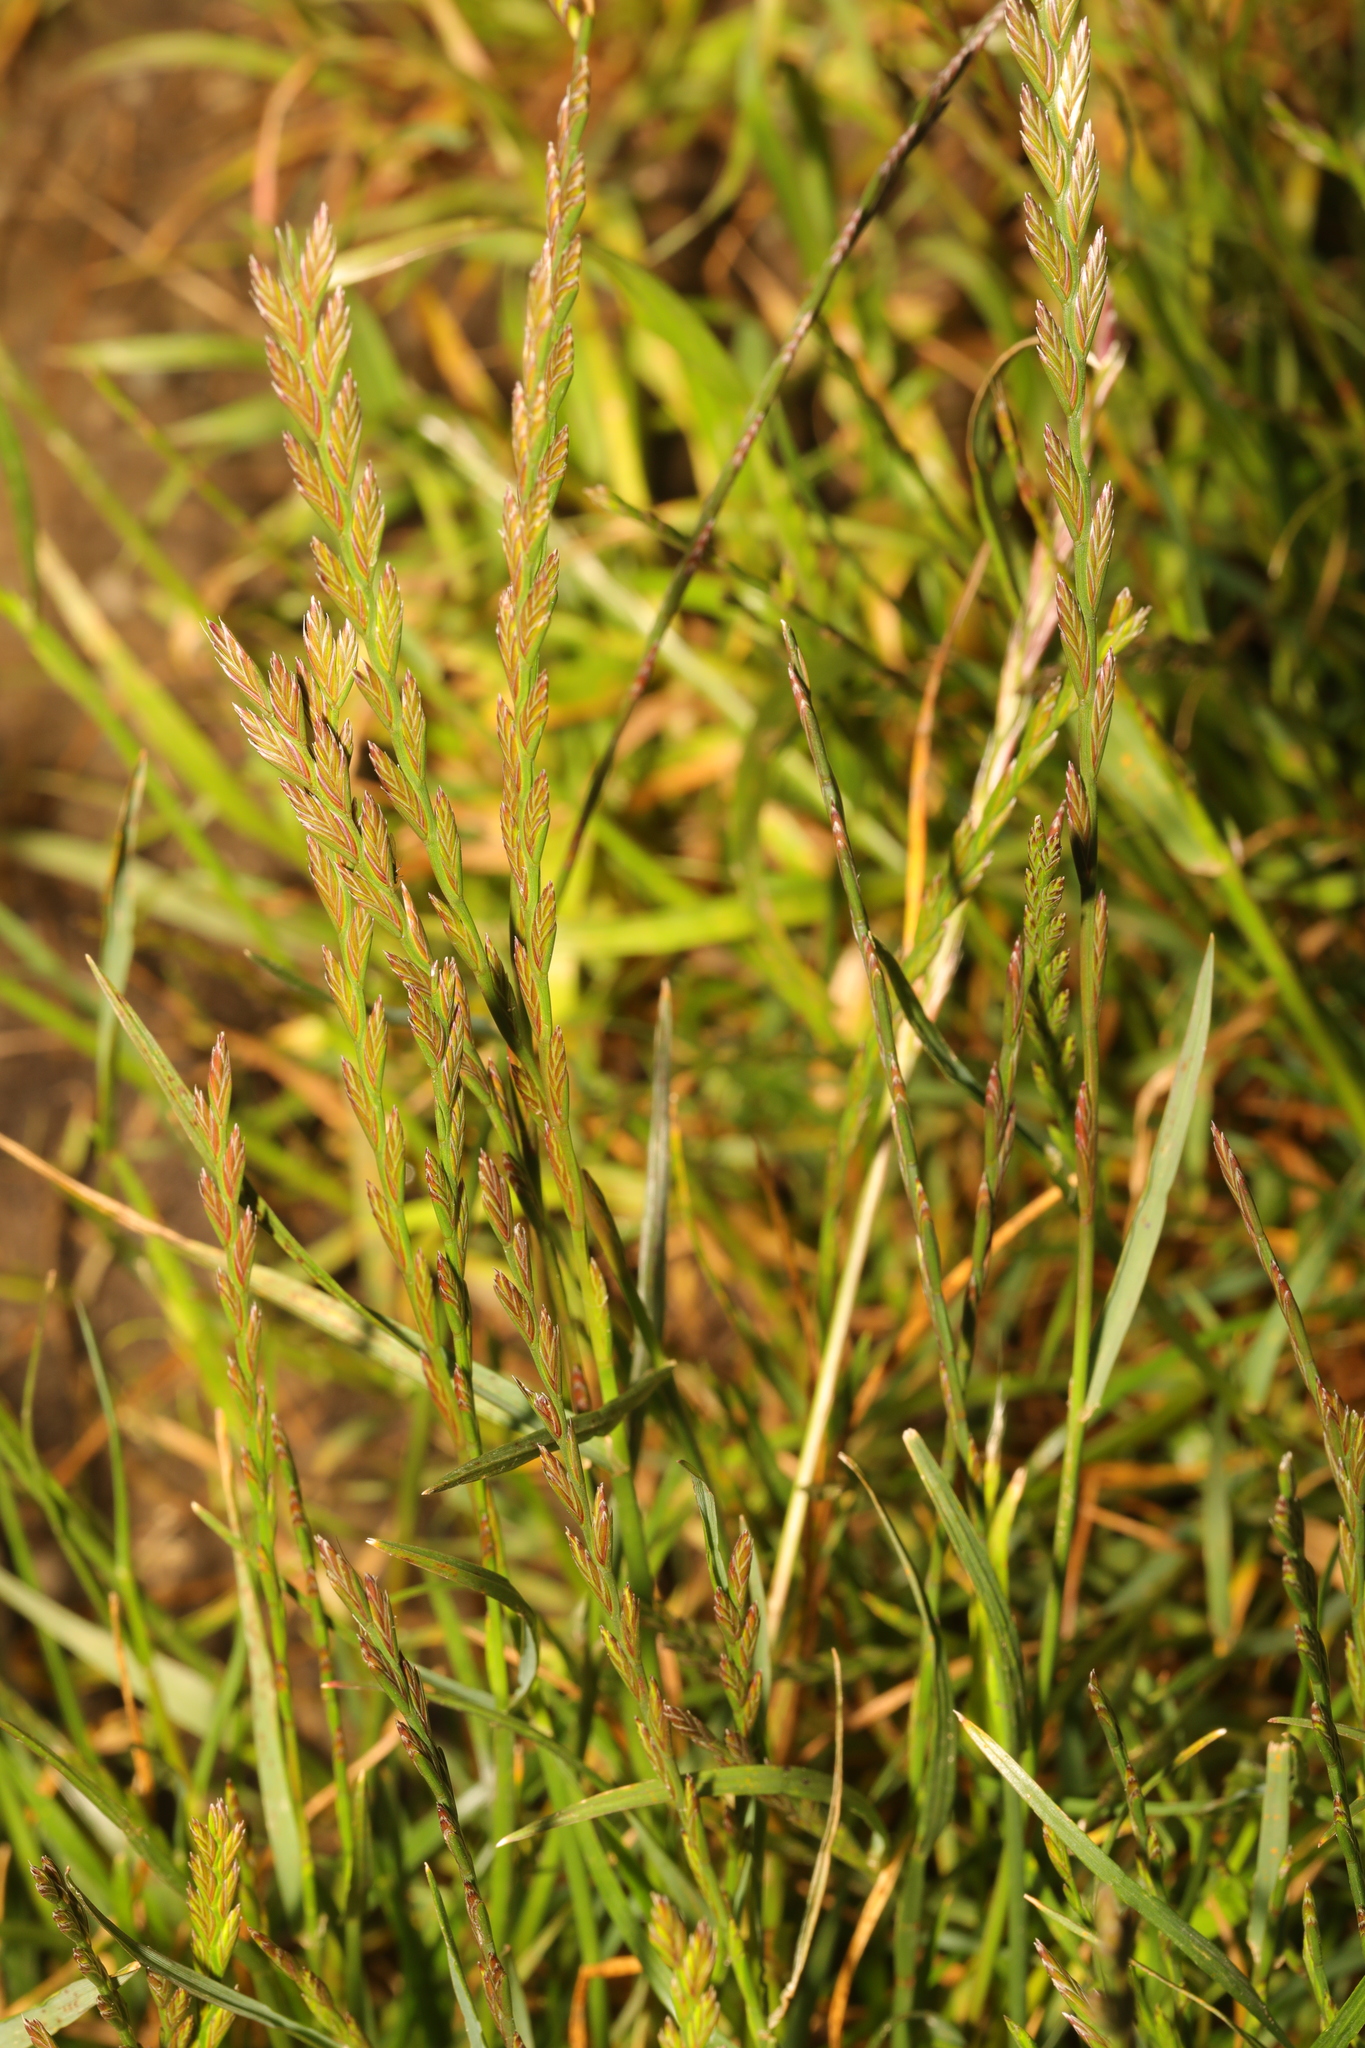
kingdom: Plantae
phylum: Tracheophyta
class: Liliopsida
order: Poales
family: Poaceae
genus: Lolium
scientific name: Lolium perenne
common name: Perennial ryegrass
